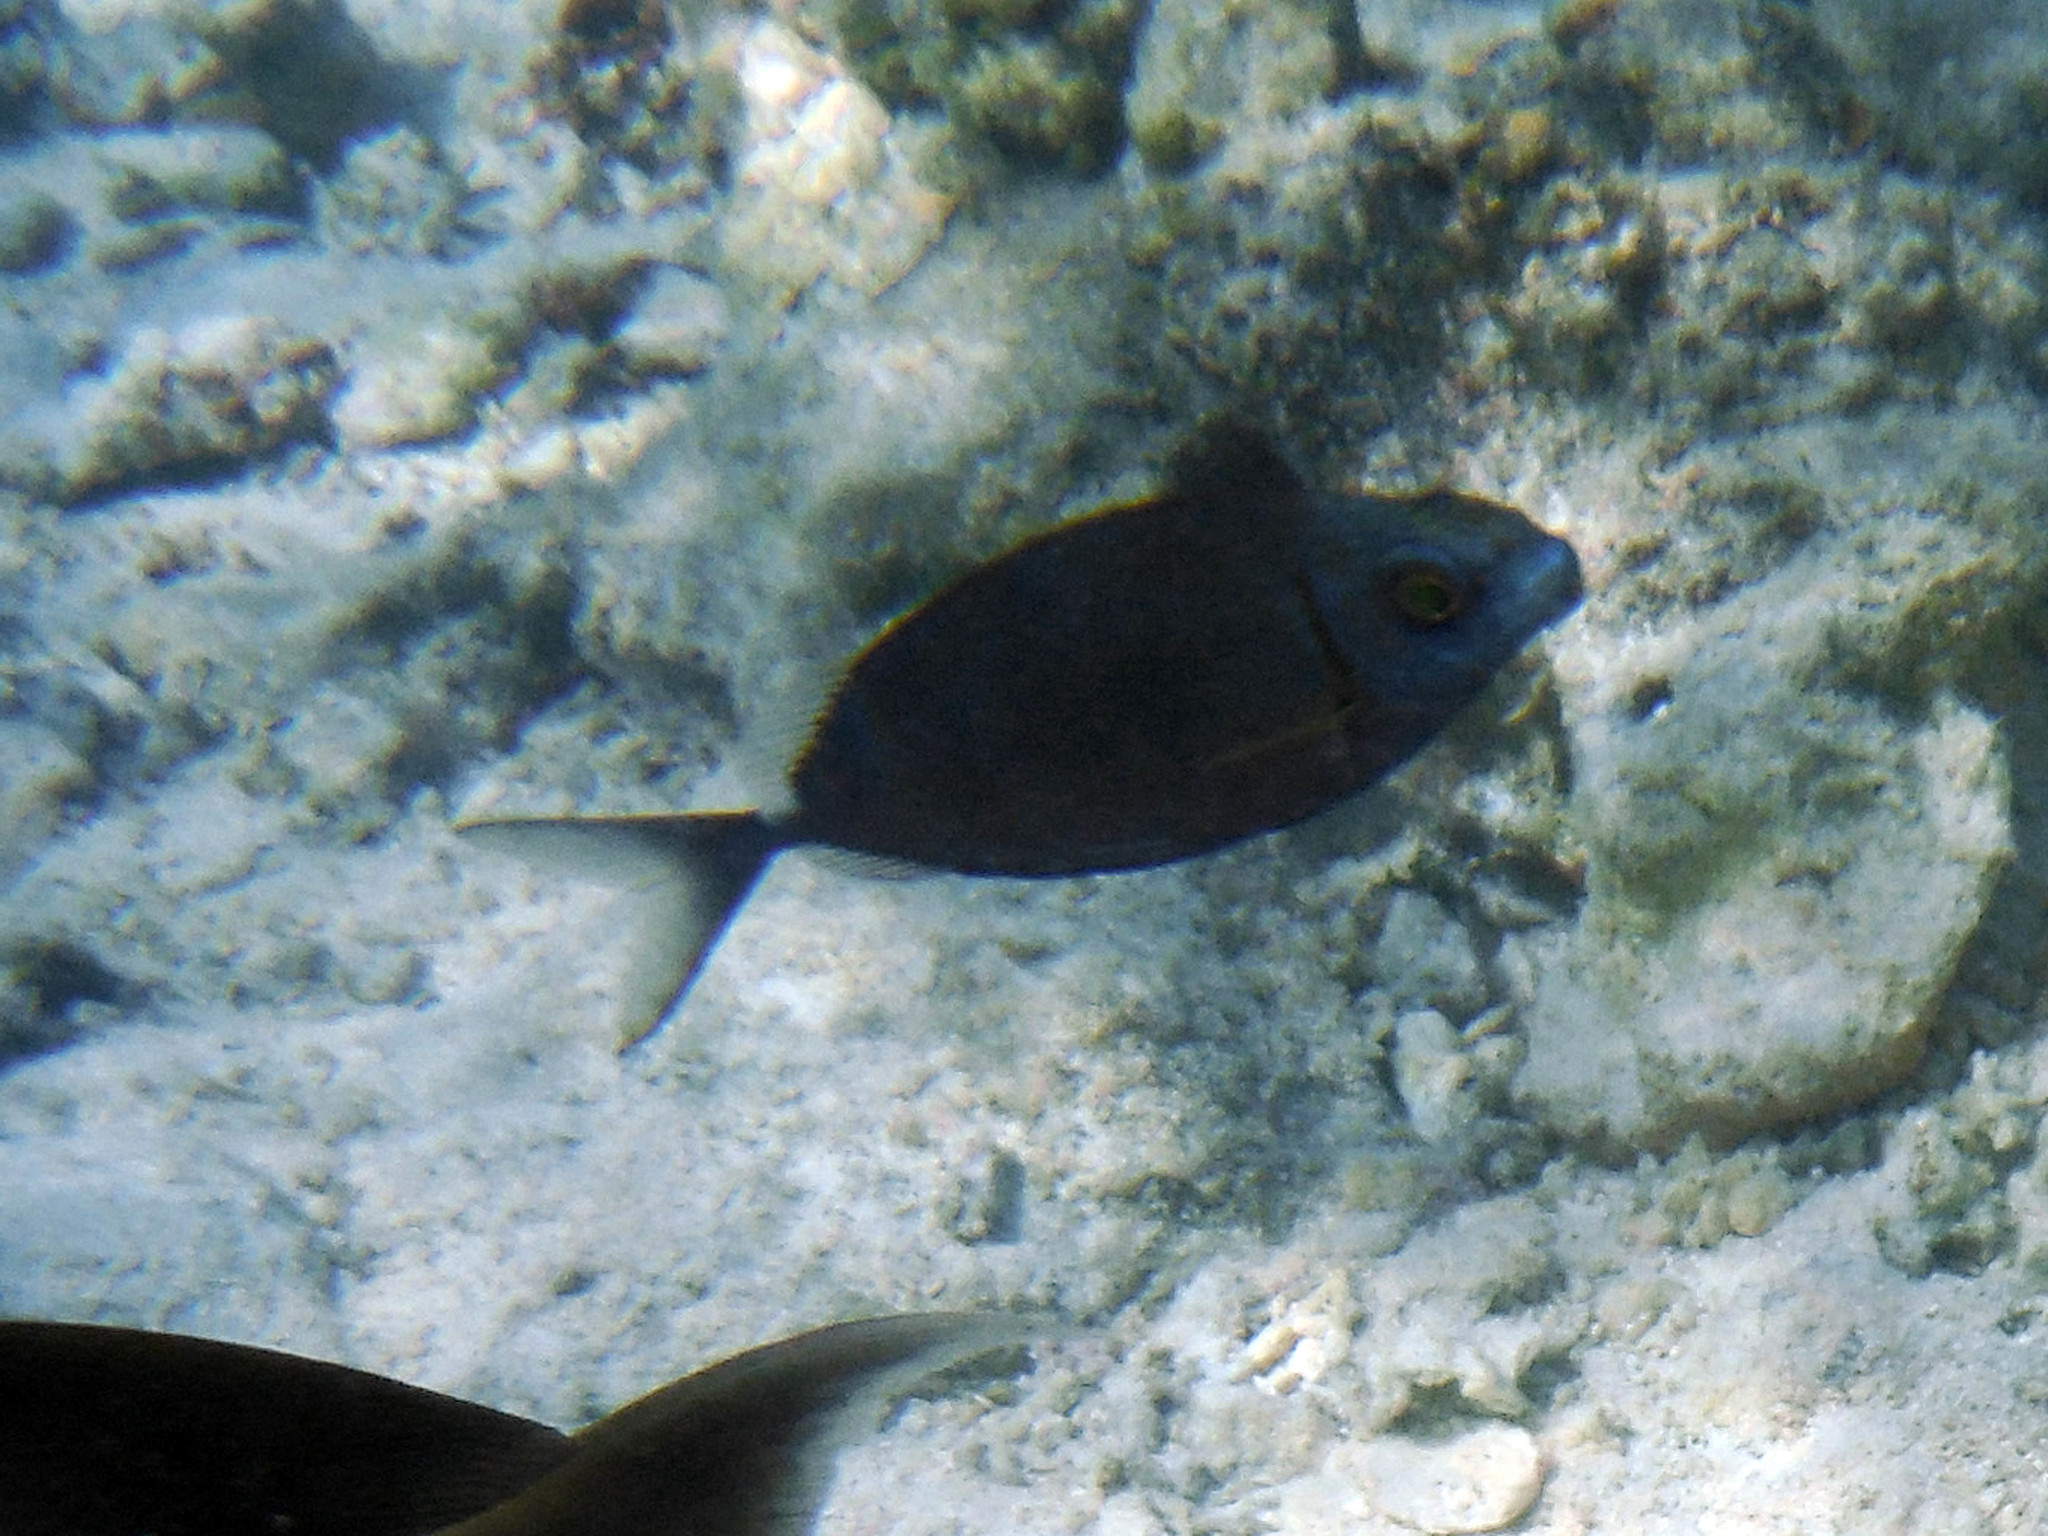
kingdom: Animalia
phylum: Chordata
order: Perciformes
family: Siganidae
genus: Siganus
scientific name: Siganus argenteus
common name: Forktail rabbitfish
